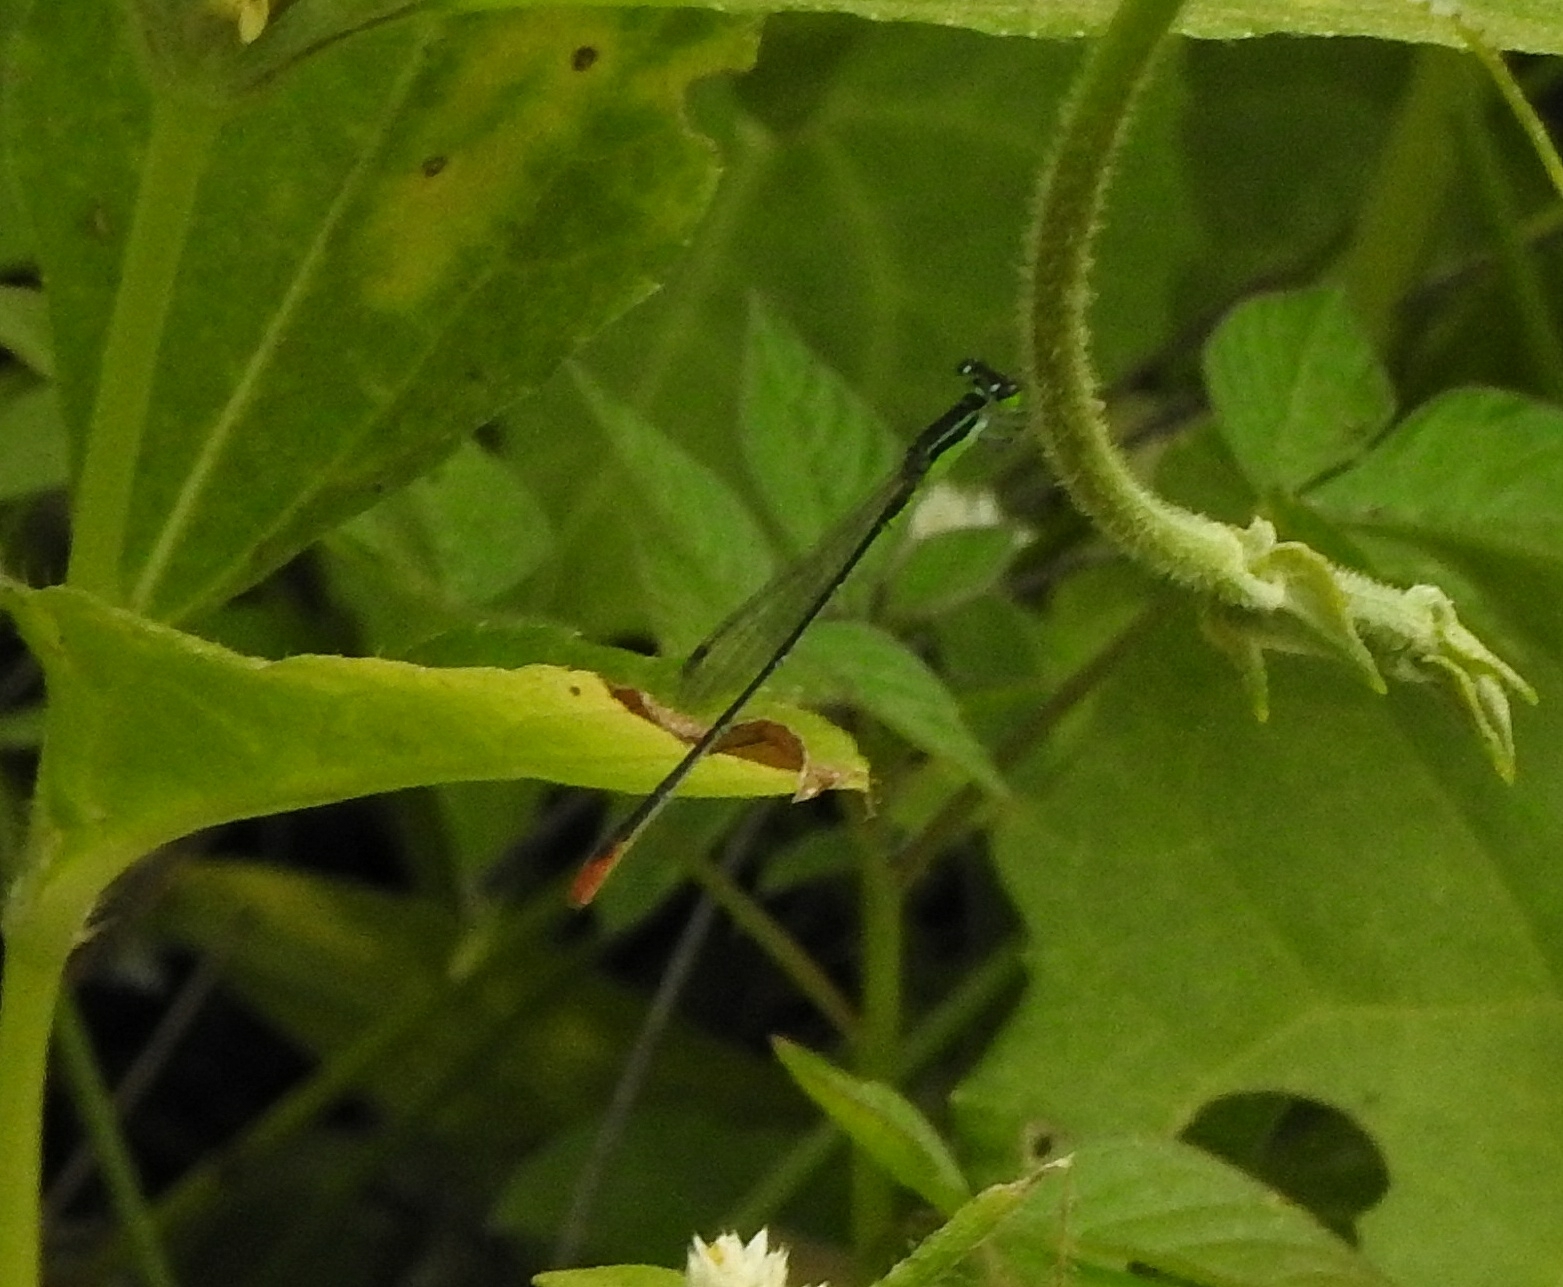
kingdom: Animalia
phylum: Arthropoda
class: Insecta
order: Odonata
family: Coenagrionidae
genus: Agriocnemis
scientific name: Agriocnemis pygmaea
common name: Pygmy wisp
